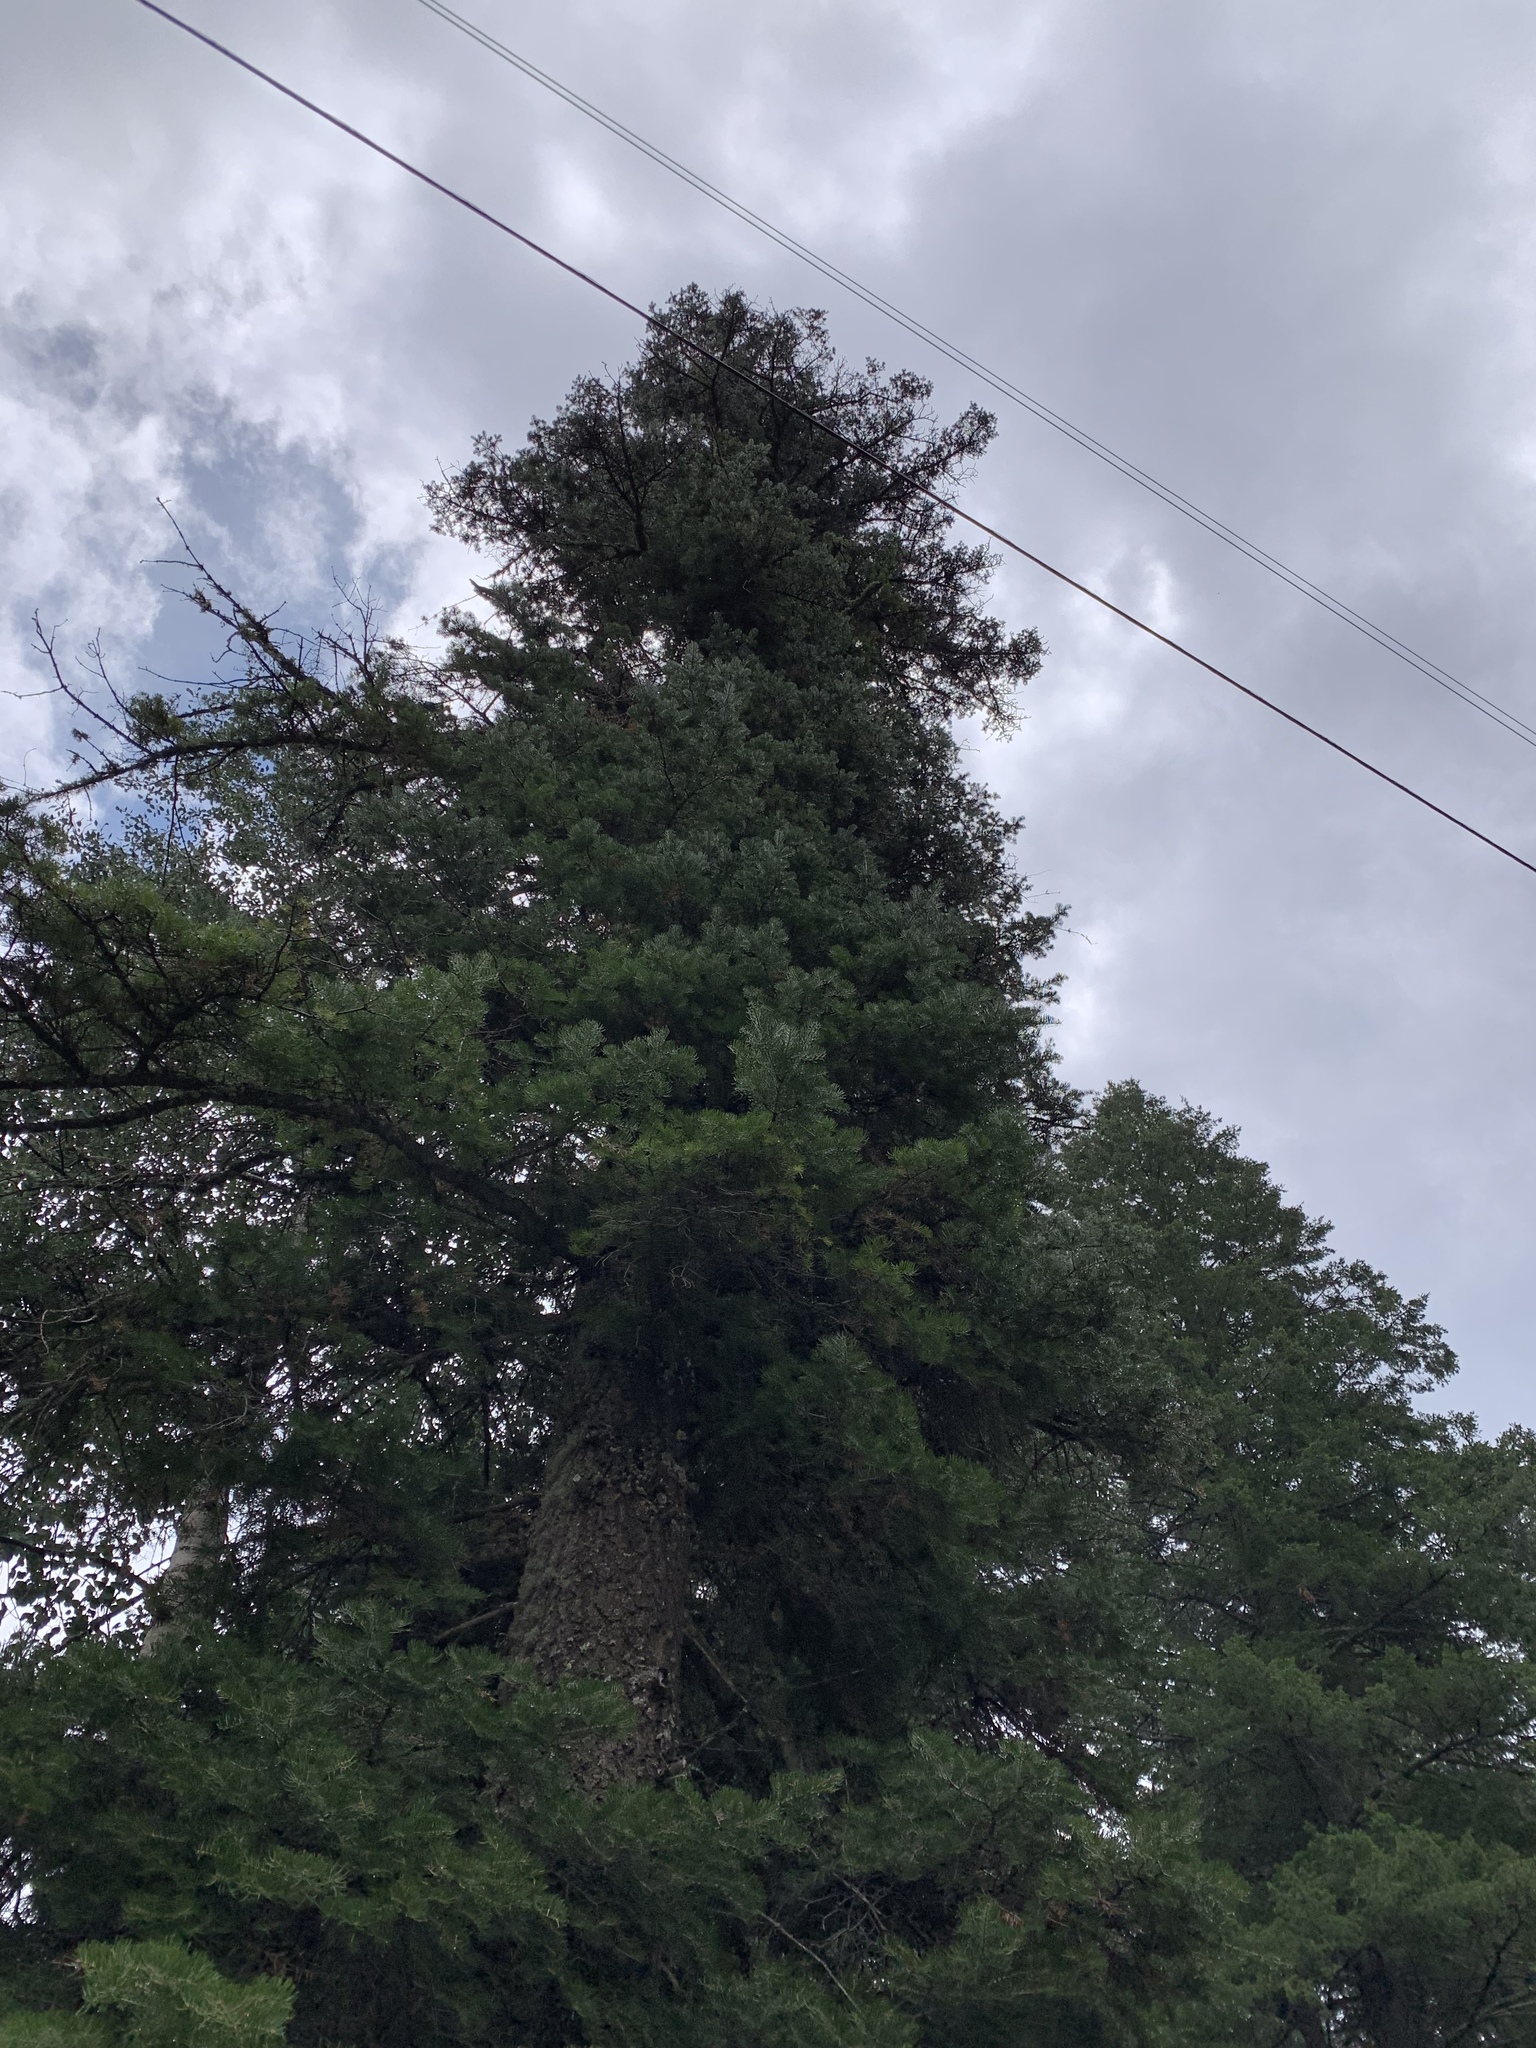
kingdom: Plantae
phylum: Tracheophyta
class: Pinopsida
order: Pinales
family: Pinaceae
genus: Abies
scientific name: Abies concolor
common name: Colorado fir
